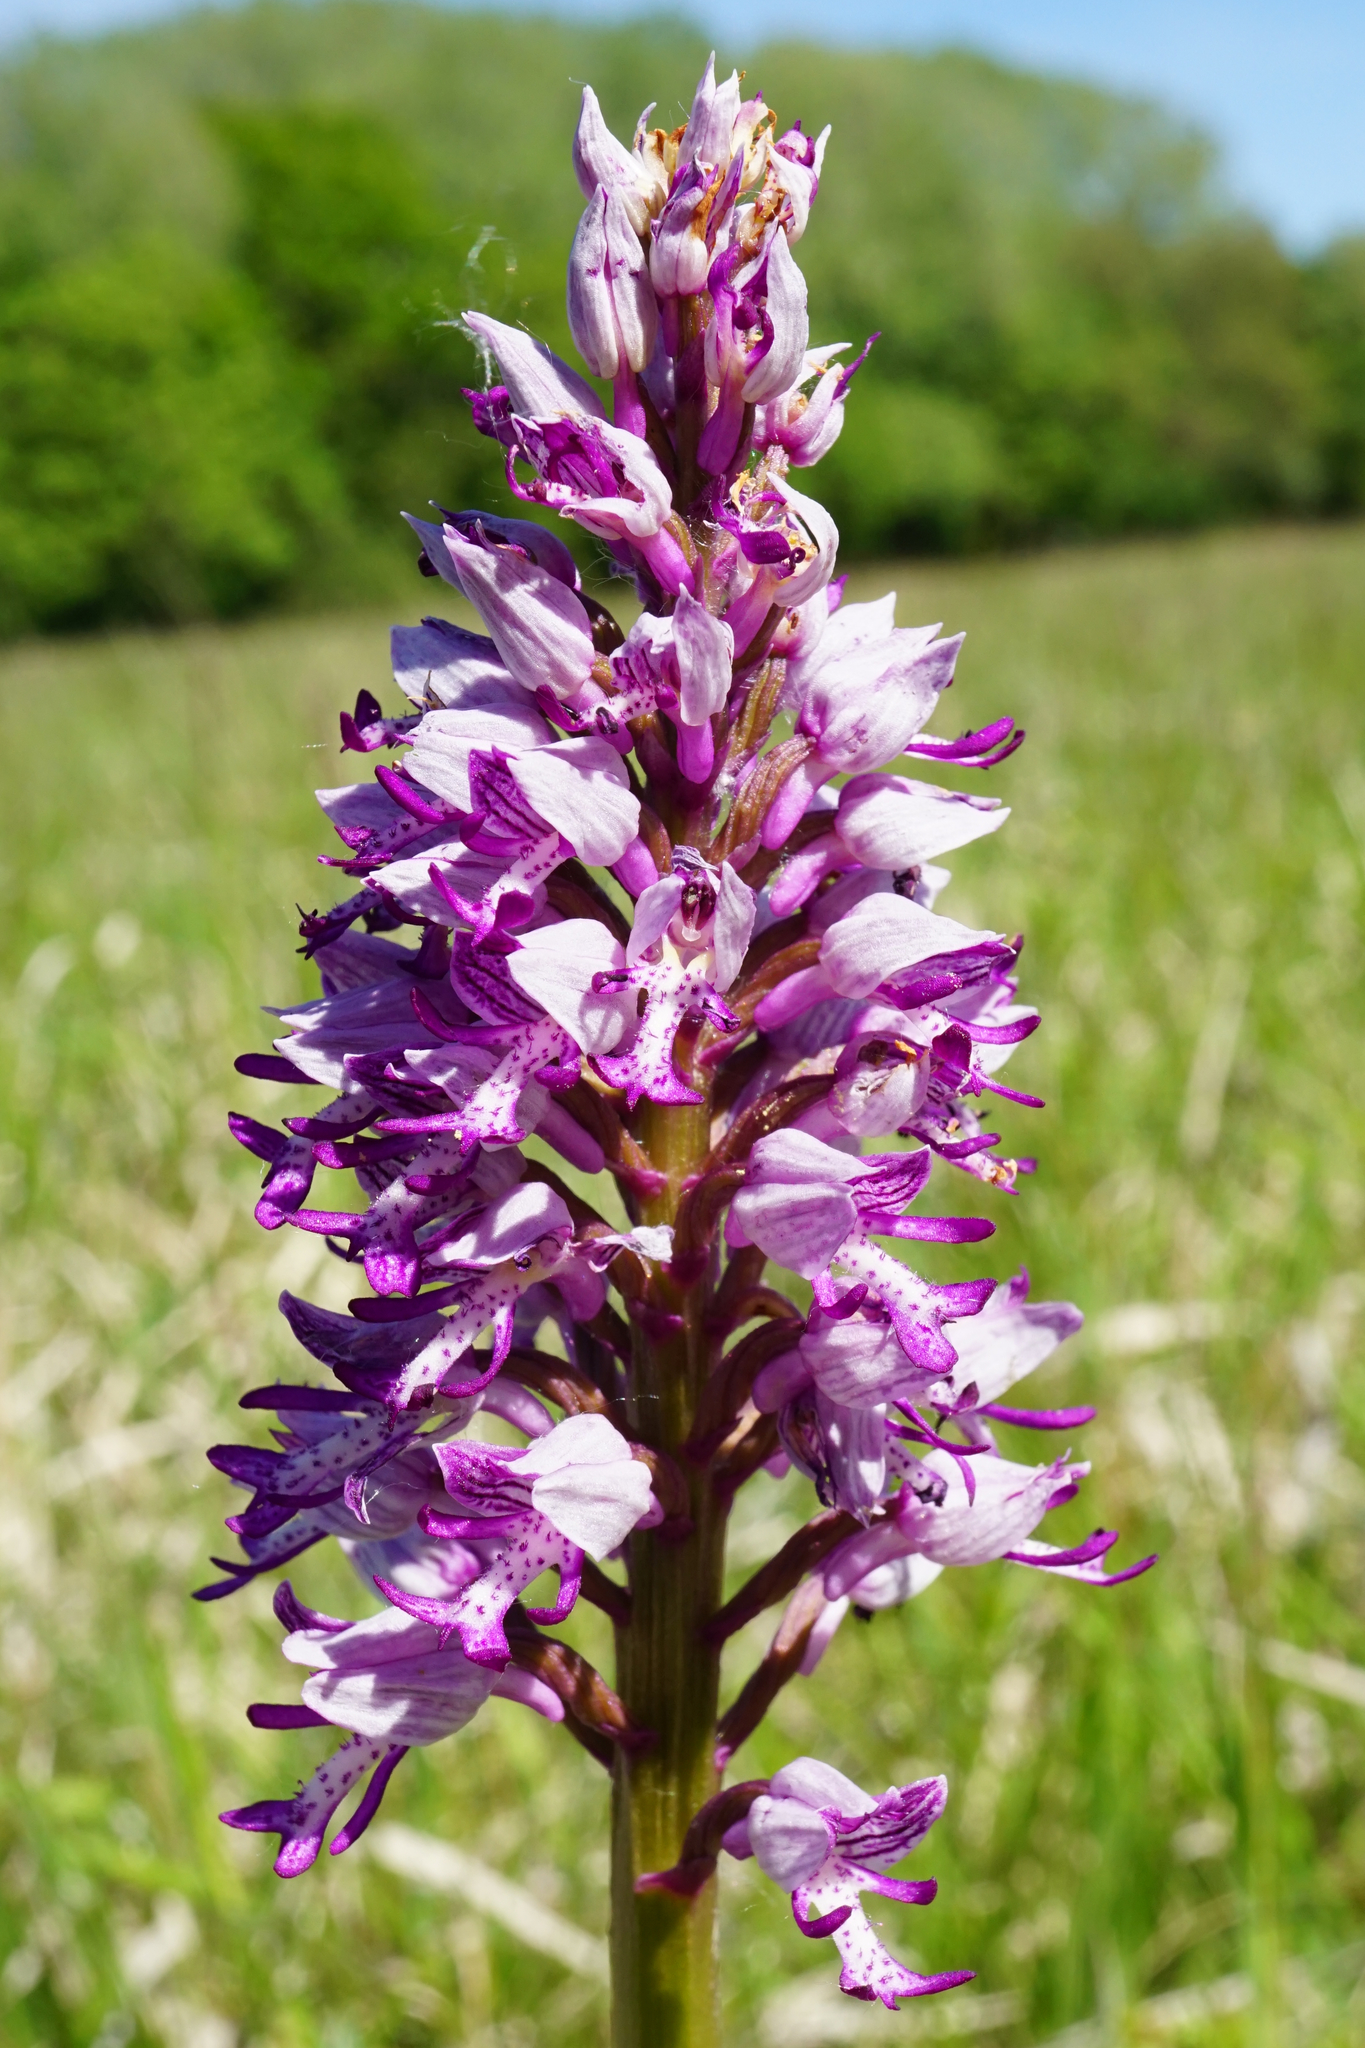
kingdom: Plantae
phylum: Tracheophyta
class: Liliopsida
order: Asparagales
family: Orchidaceae
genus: Orchis
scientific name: Orchis militaris
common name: Military orchid
